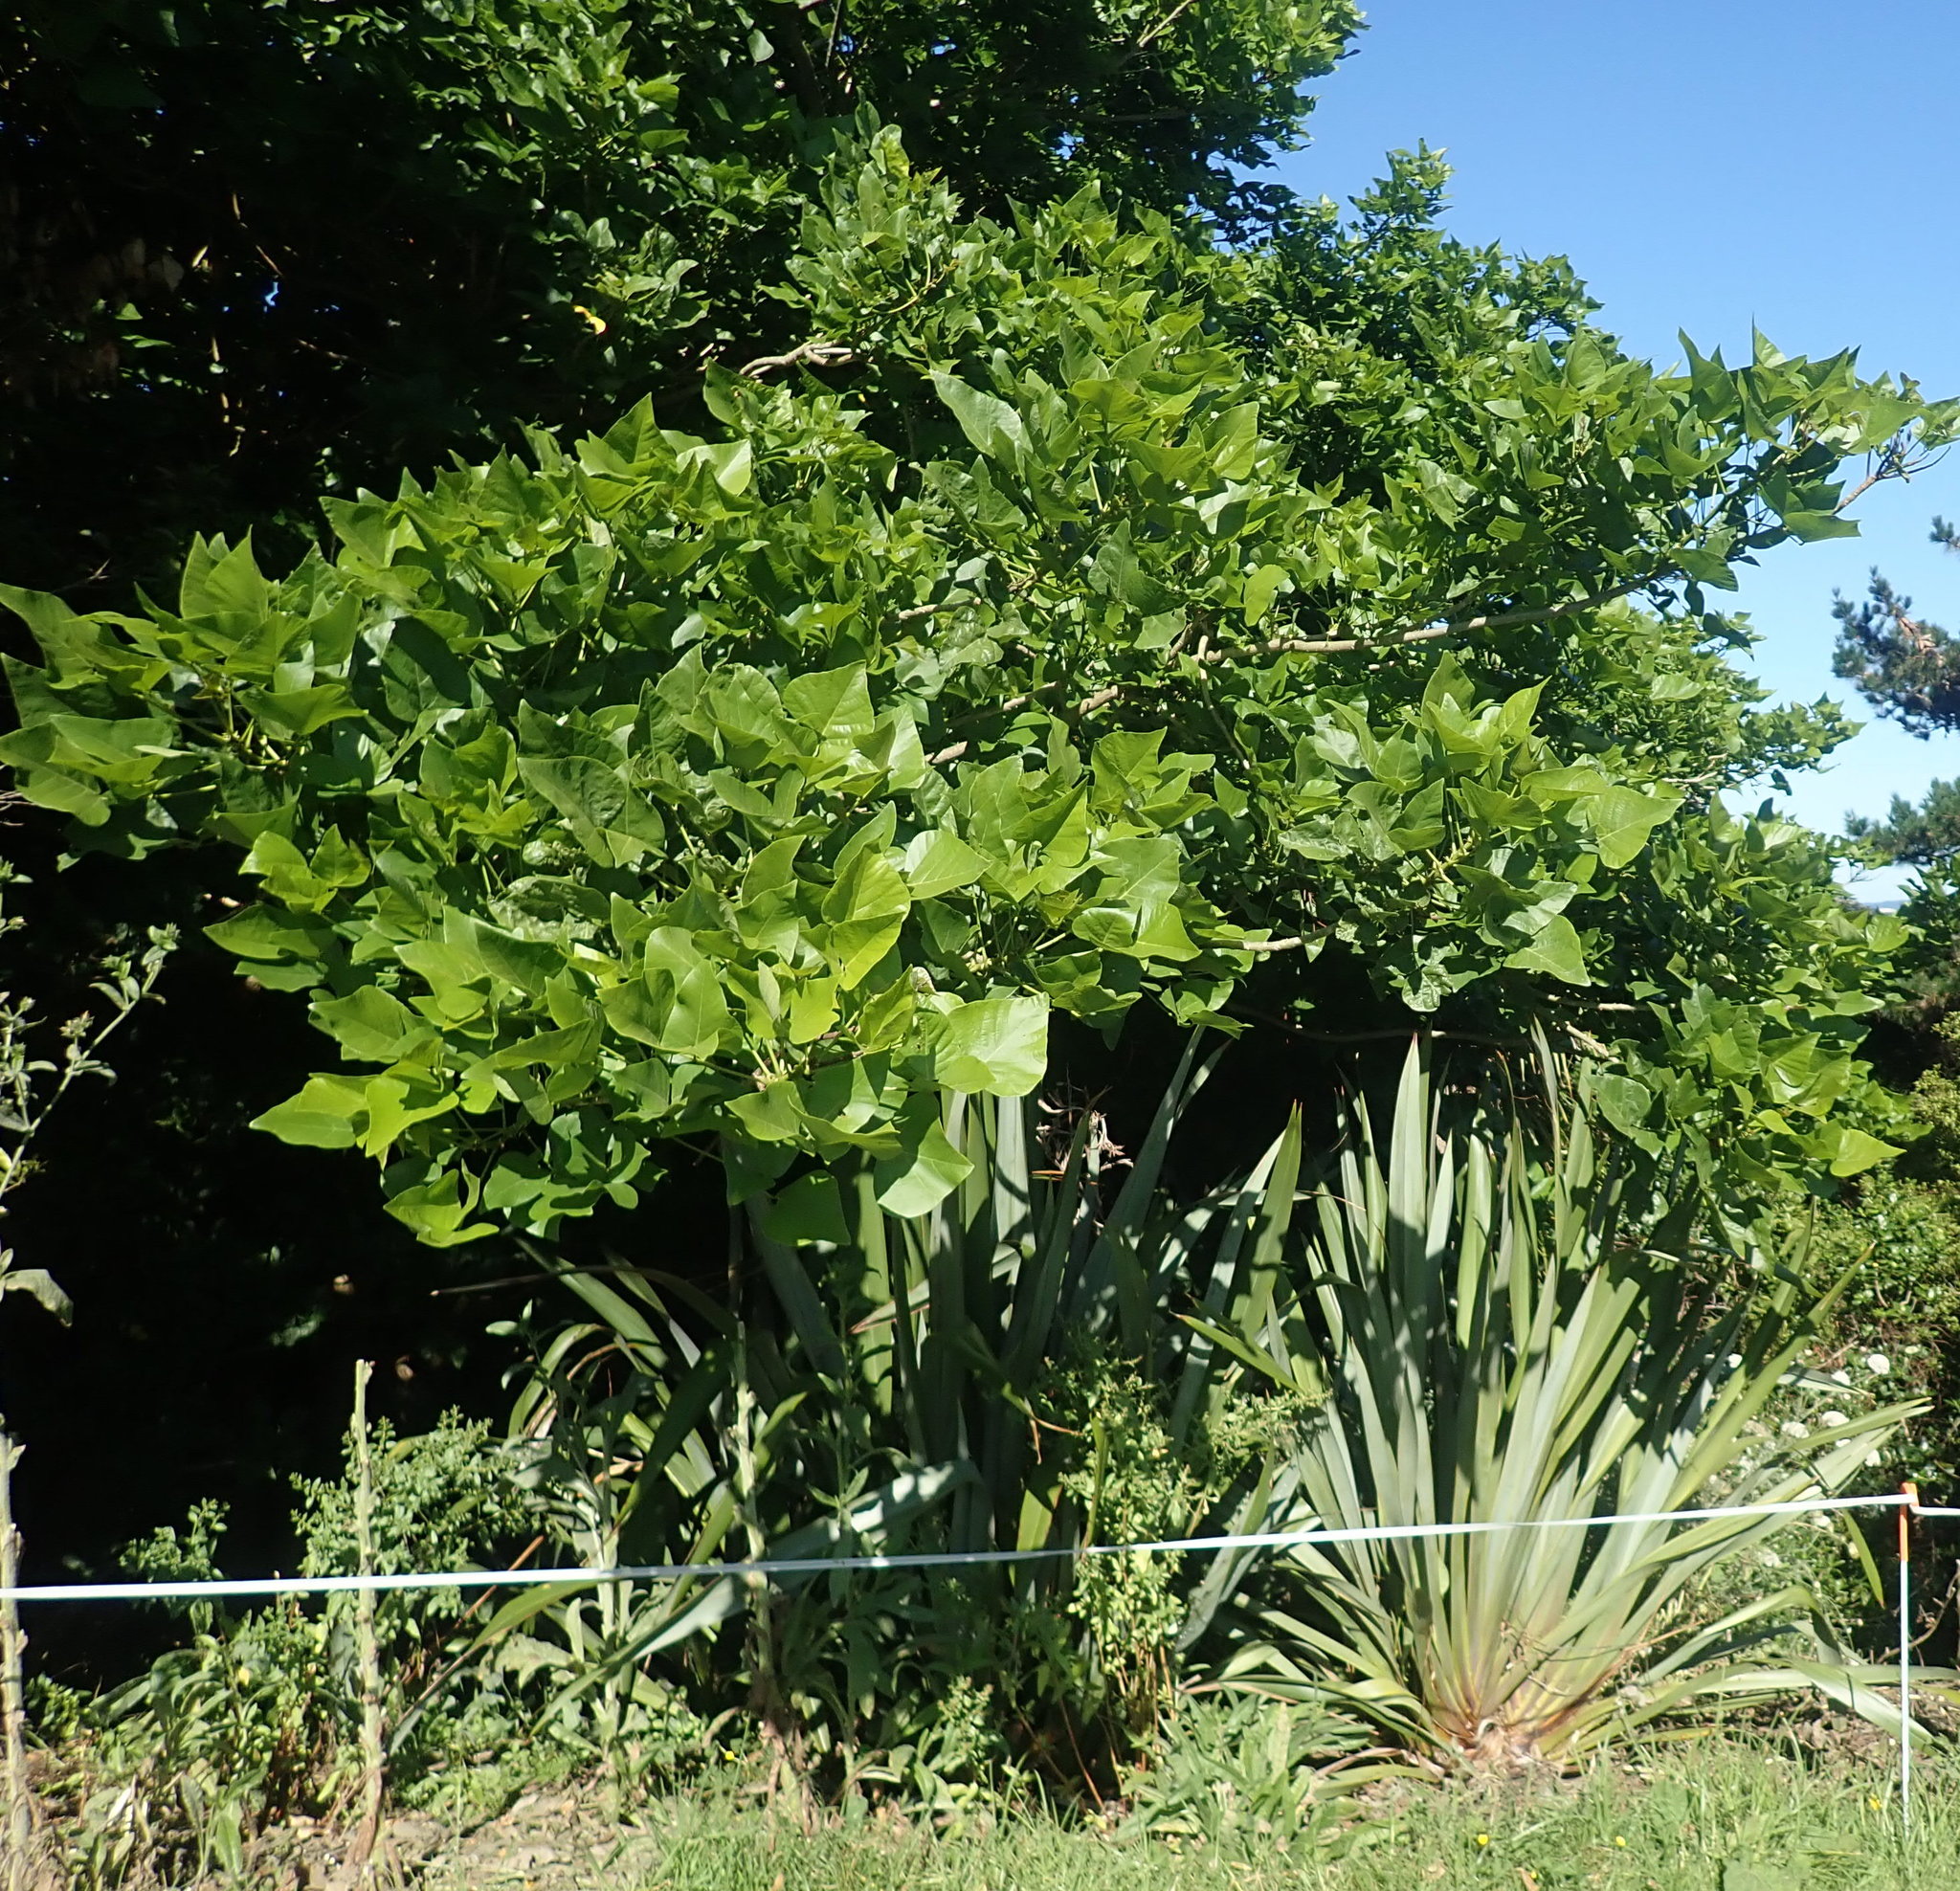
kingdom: Plantae
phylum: Tracheophyta
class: Magnoliopsida
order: Saxifragales
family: Haloragaceae
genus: Haloragis
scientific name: Haloragis erecta
